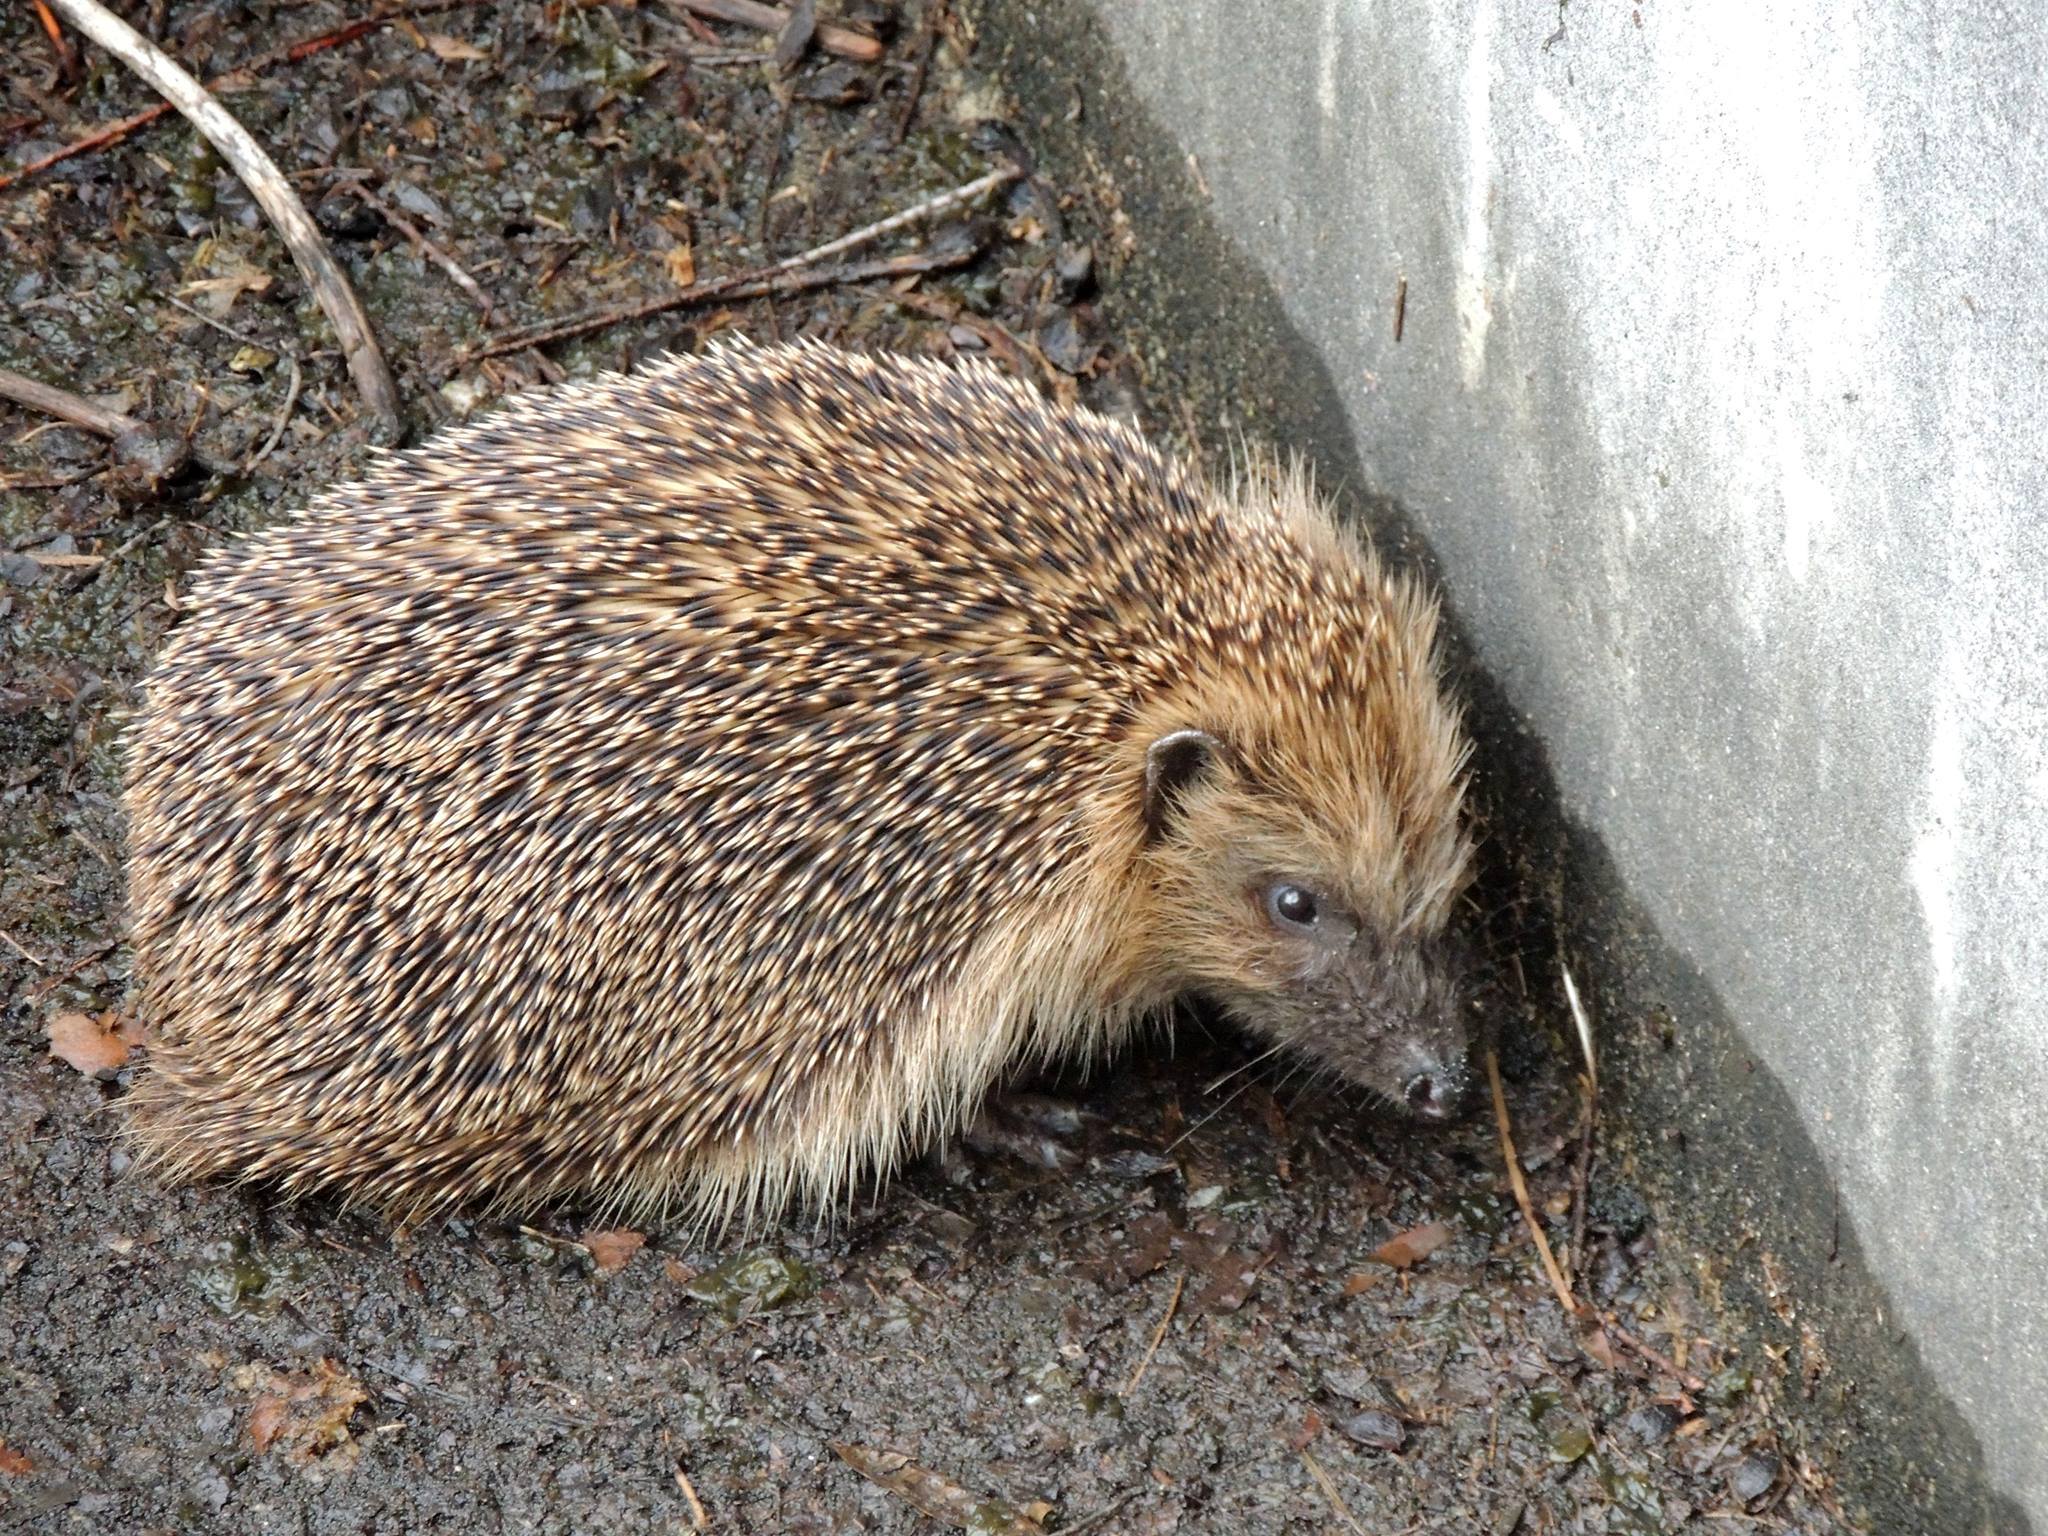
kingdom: Animalia
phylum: Chordata
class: Mammalia
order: Erinaceomorpha
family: Erinaceidae
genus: Erinaceus
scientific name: Erinaceus europaeus
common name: West european hedgehog
